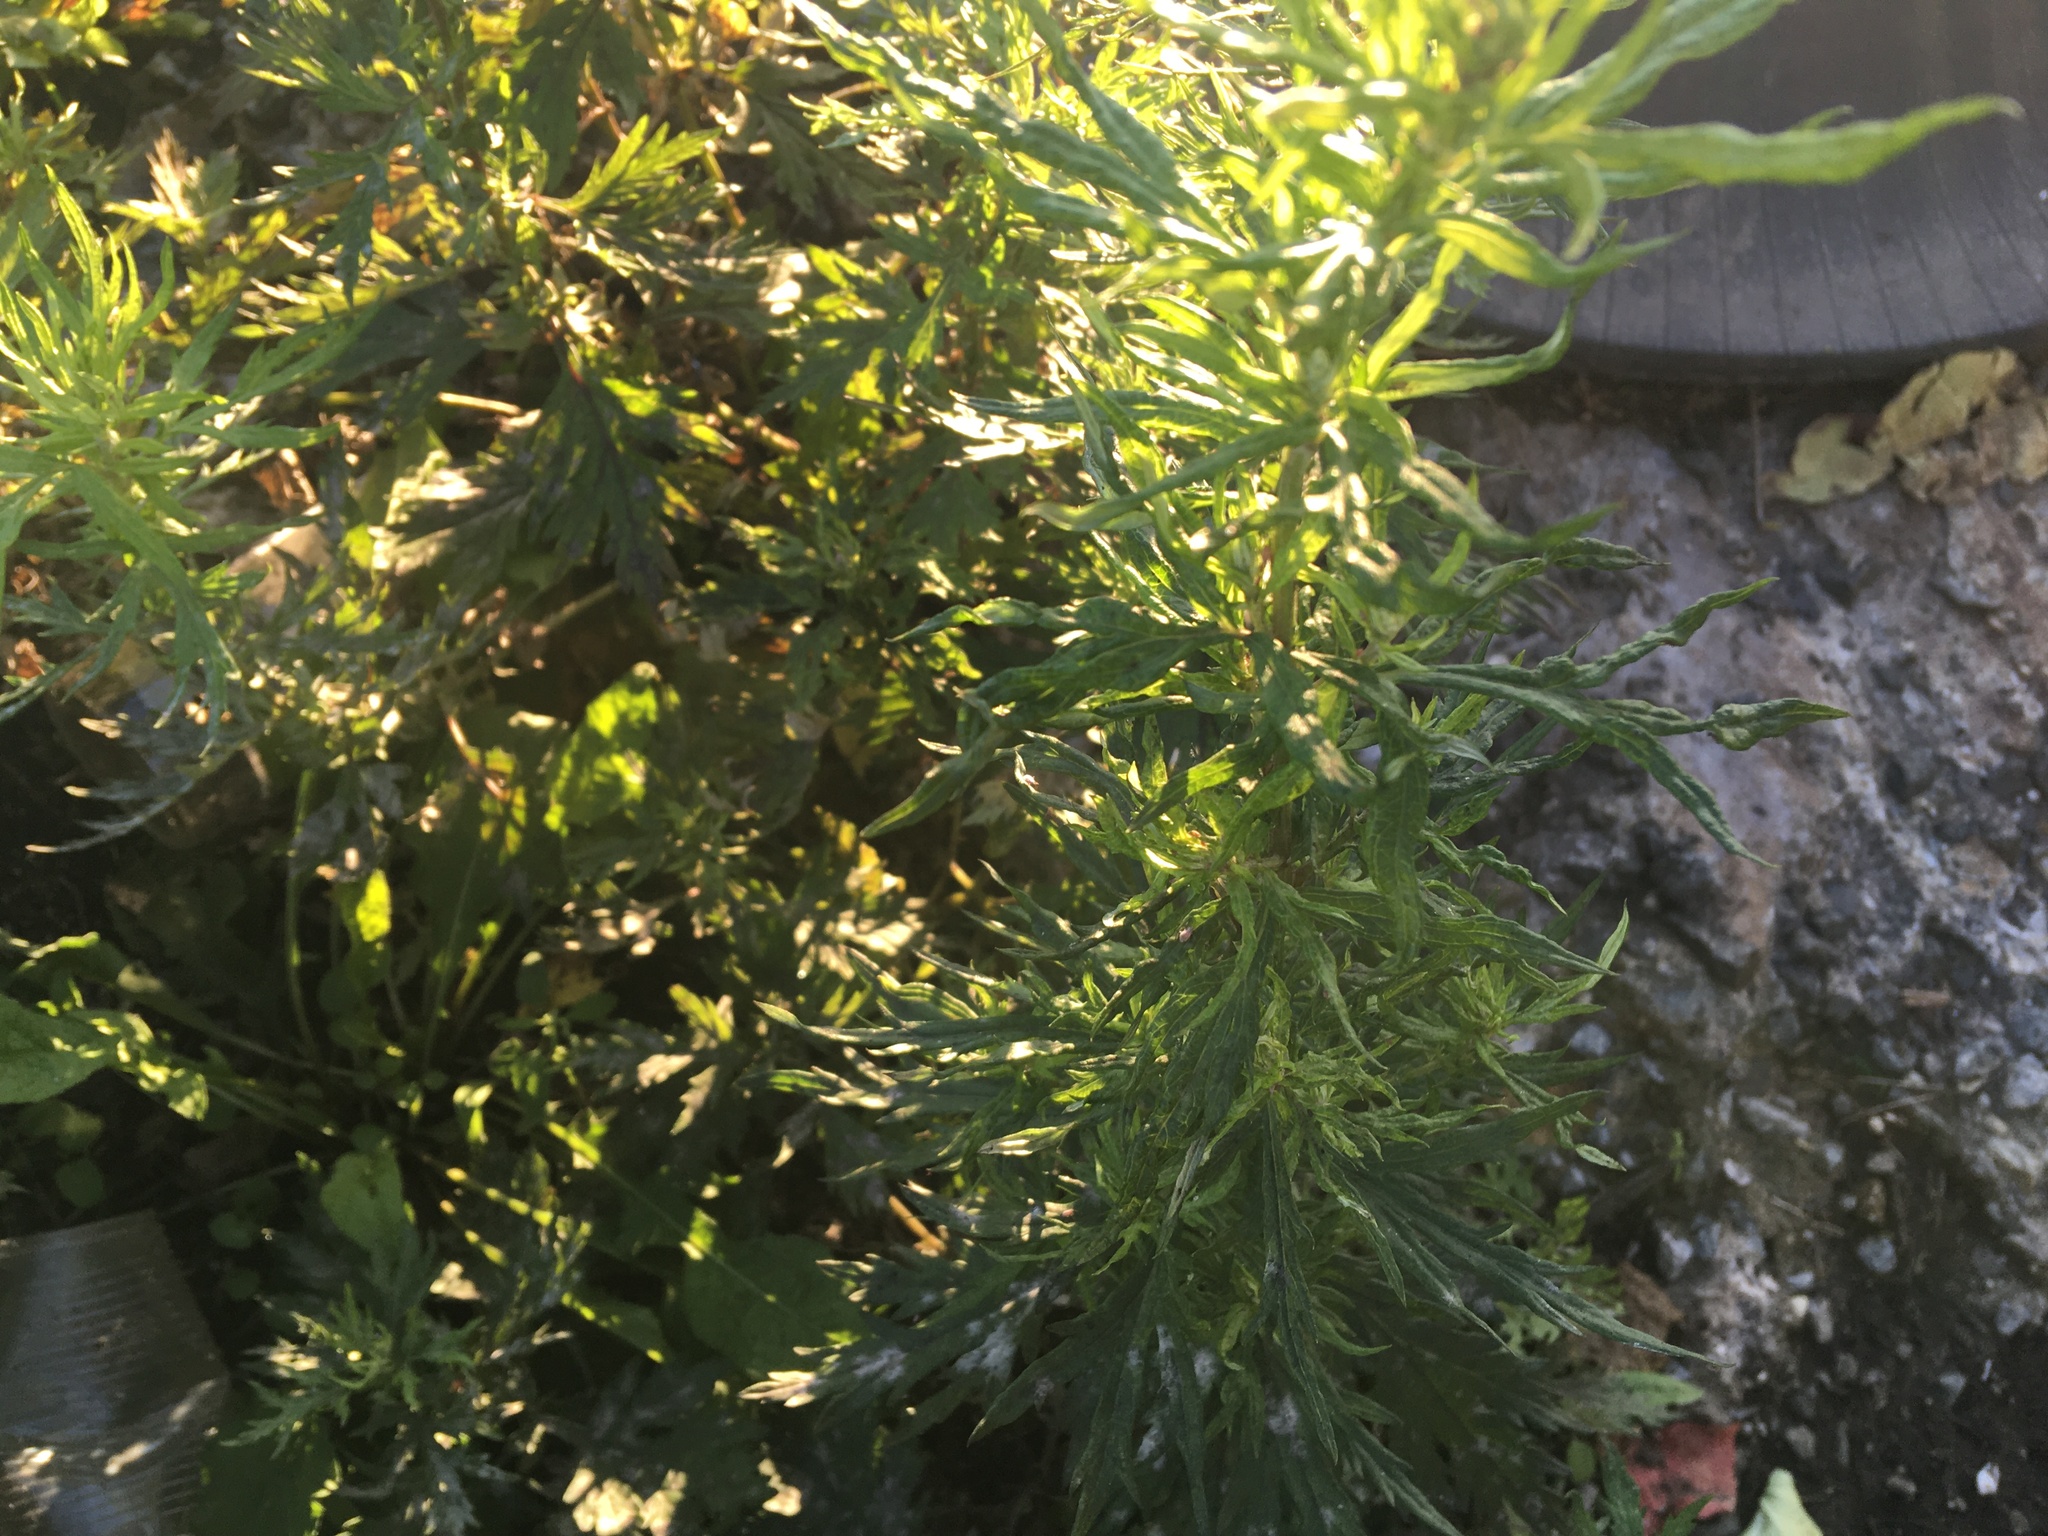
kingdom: Plantae
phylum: Tracheophyta
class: Magnoliopsida
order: Asterales
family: Asteraceae
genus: Artemisia
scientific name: Artemisia vulgaris
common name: Mugwort
